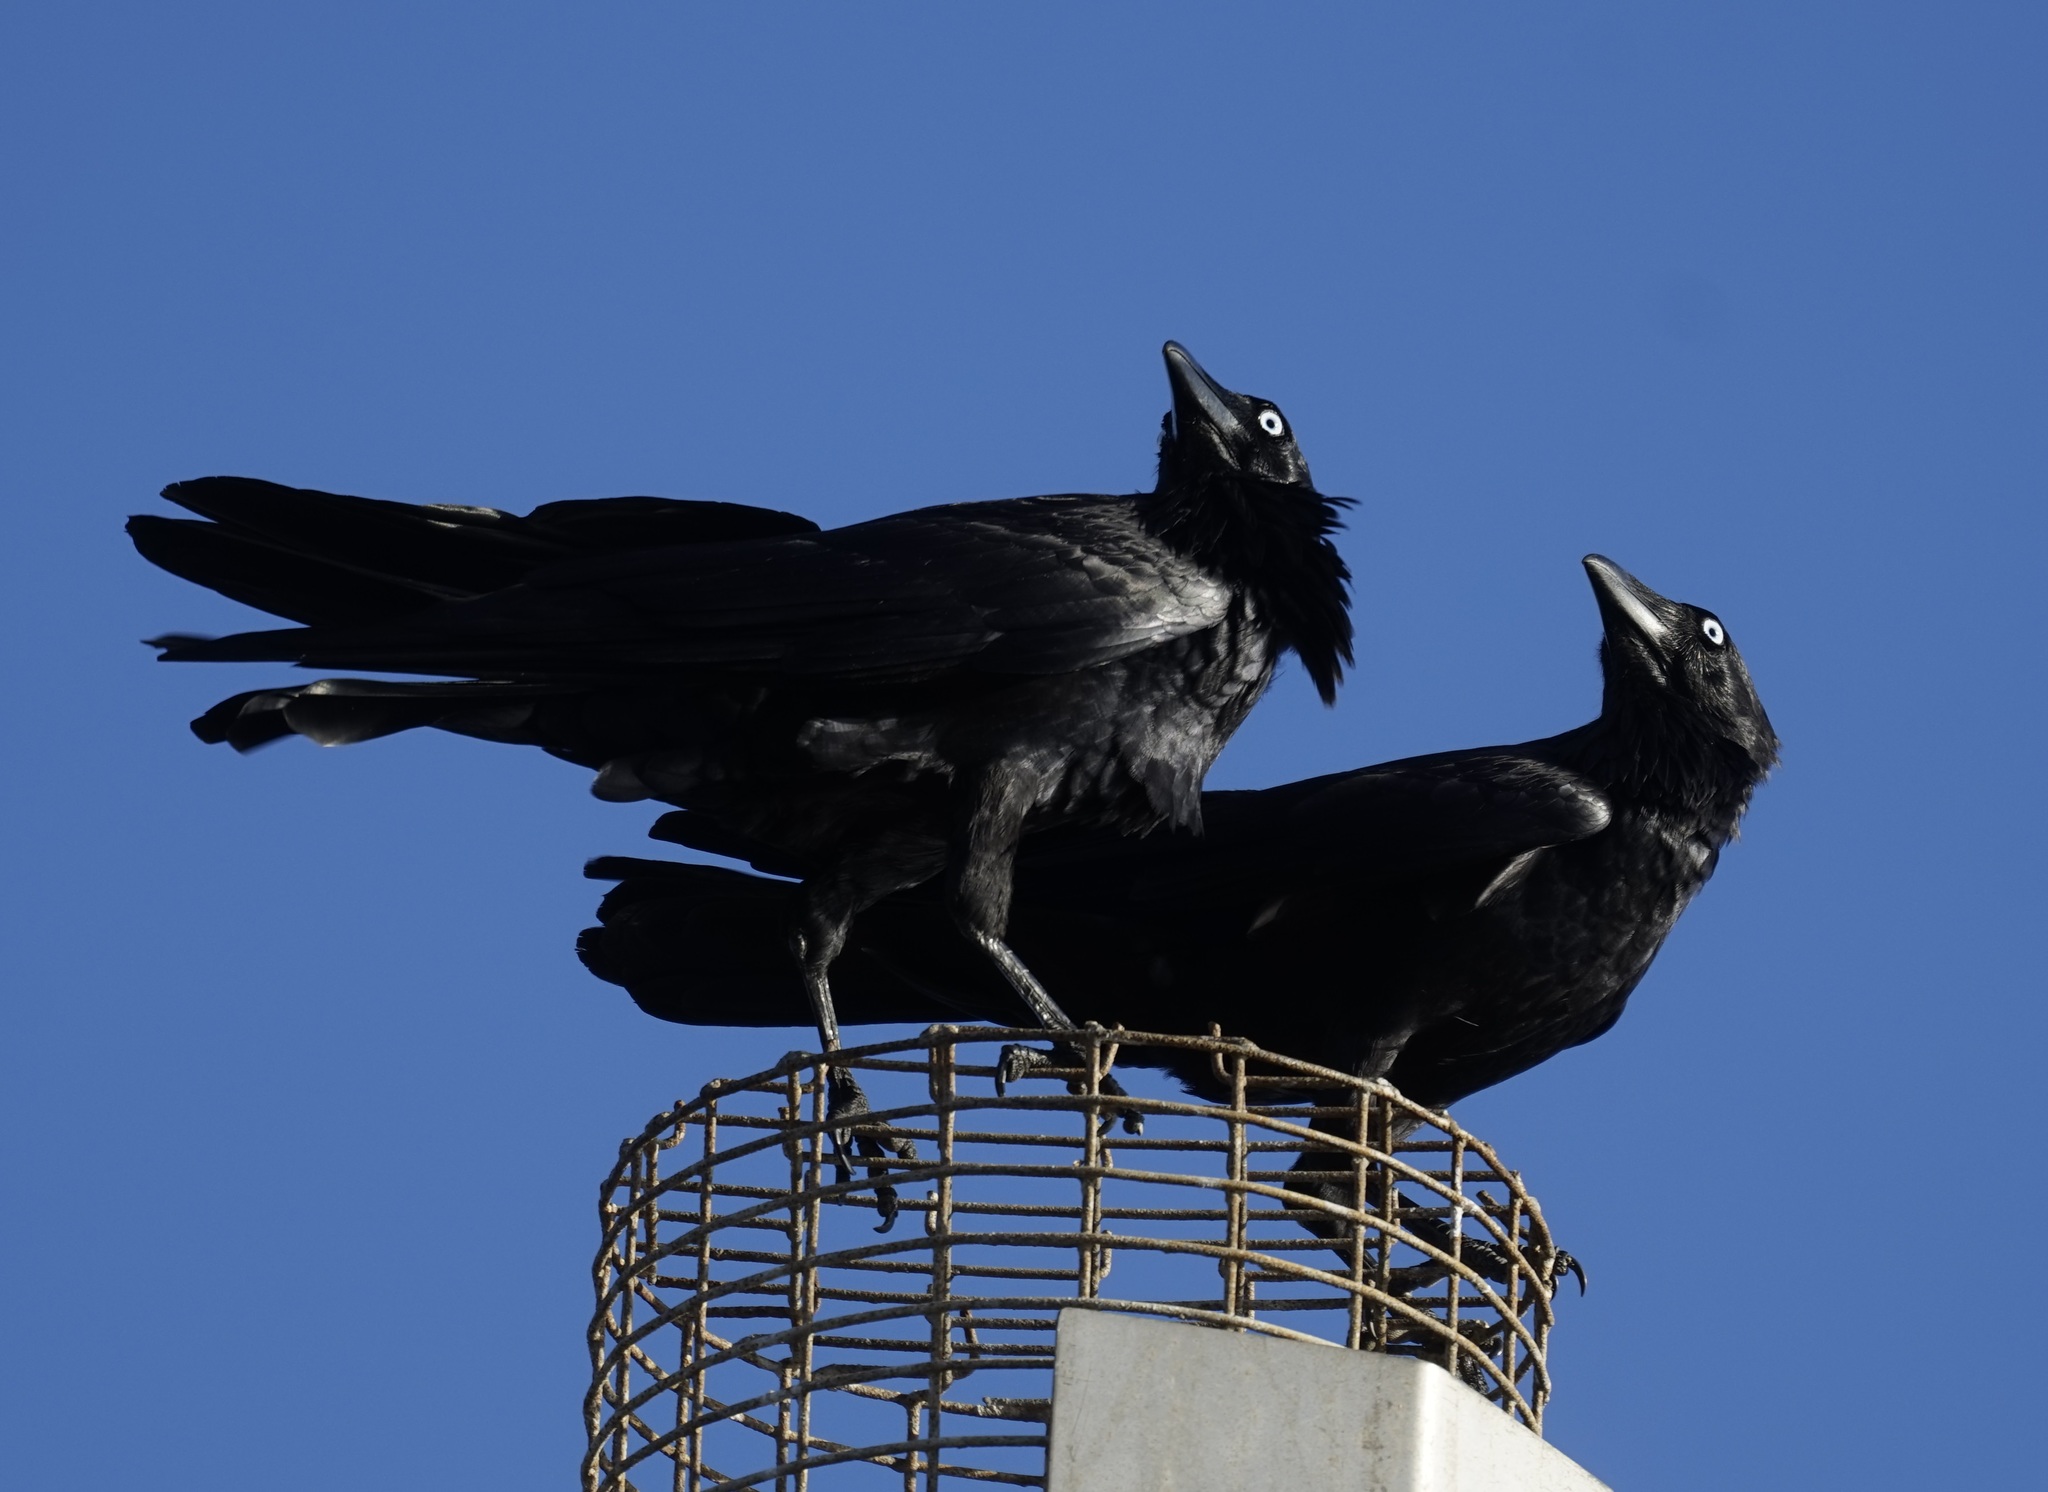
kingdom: Animalia
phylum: Chordata
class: Aves
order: Passeriformes
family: Corvidae
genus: Corvus
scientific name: Corvus coronoides
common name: Australian raven
